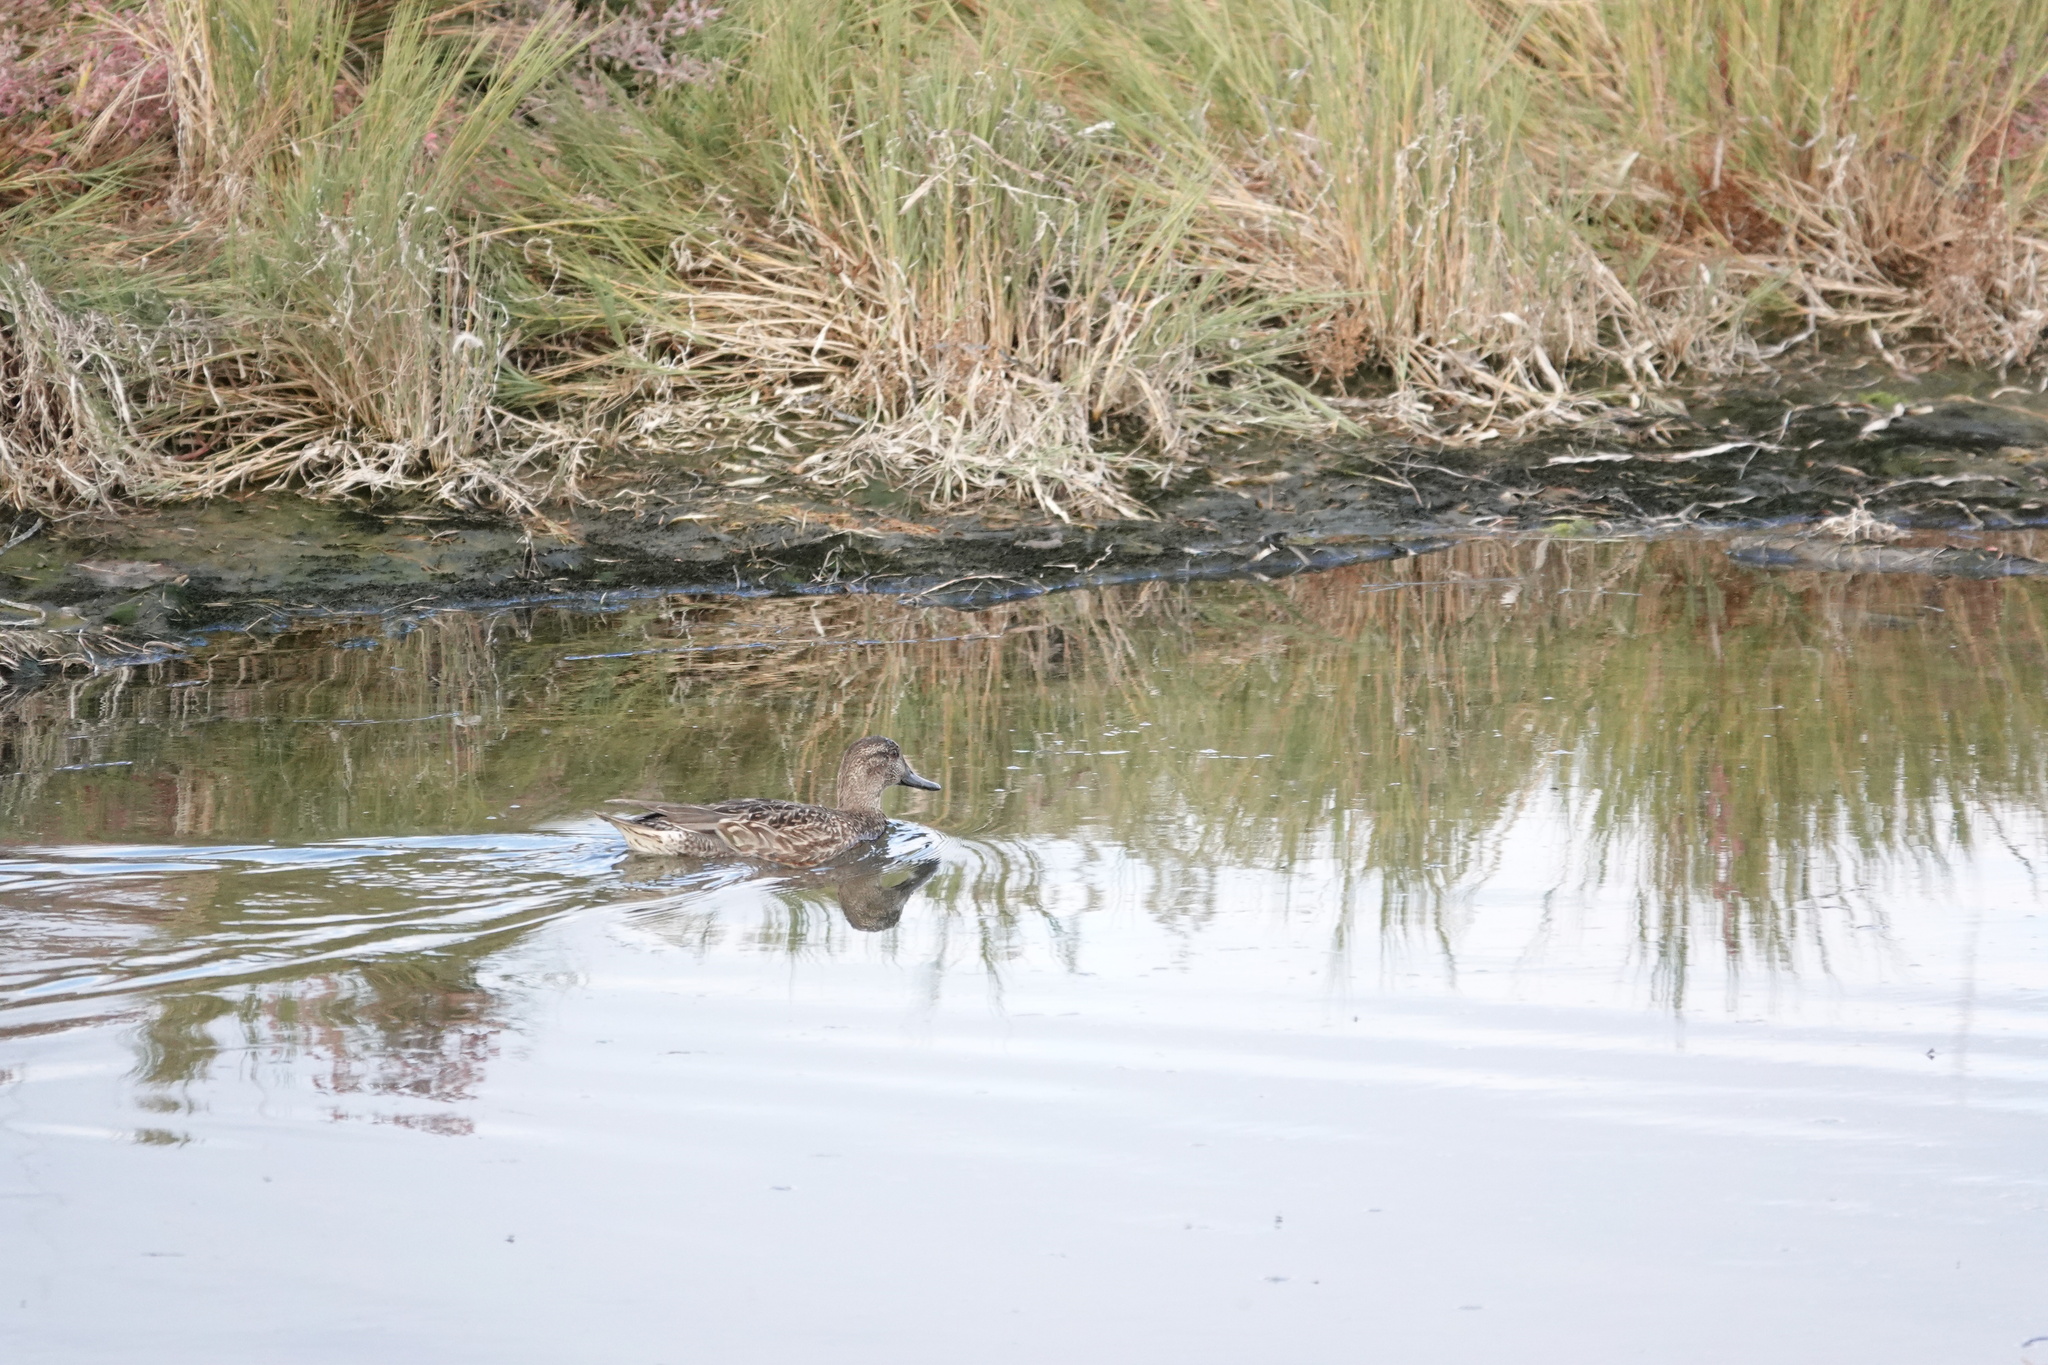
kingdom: Animalia
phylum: Chordata
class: Aves
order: Anseriformes
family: Anatidae
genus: Anas
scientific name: Anas crecca
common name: Eurasian teal
